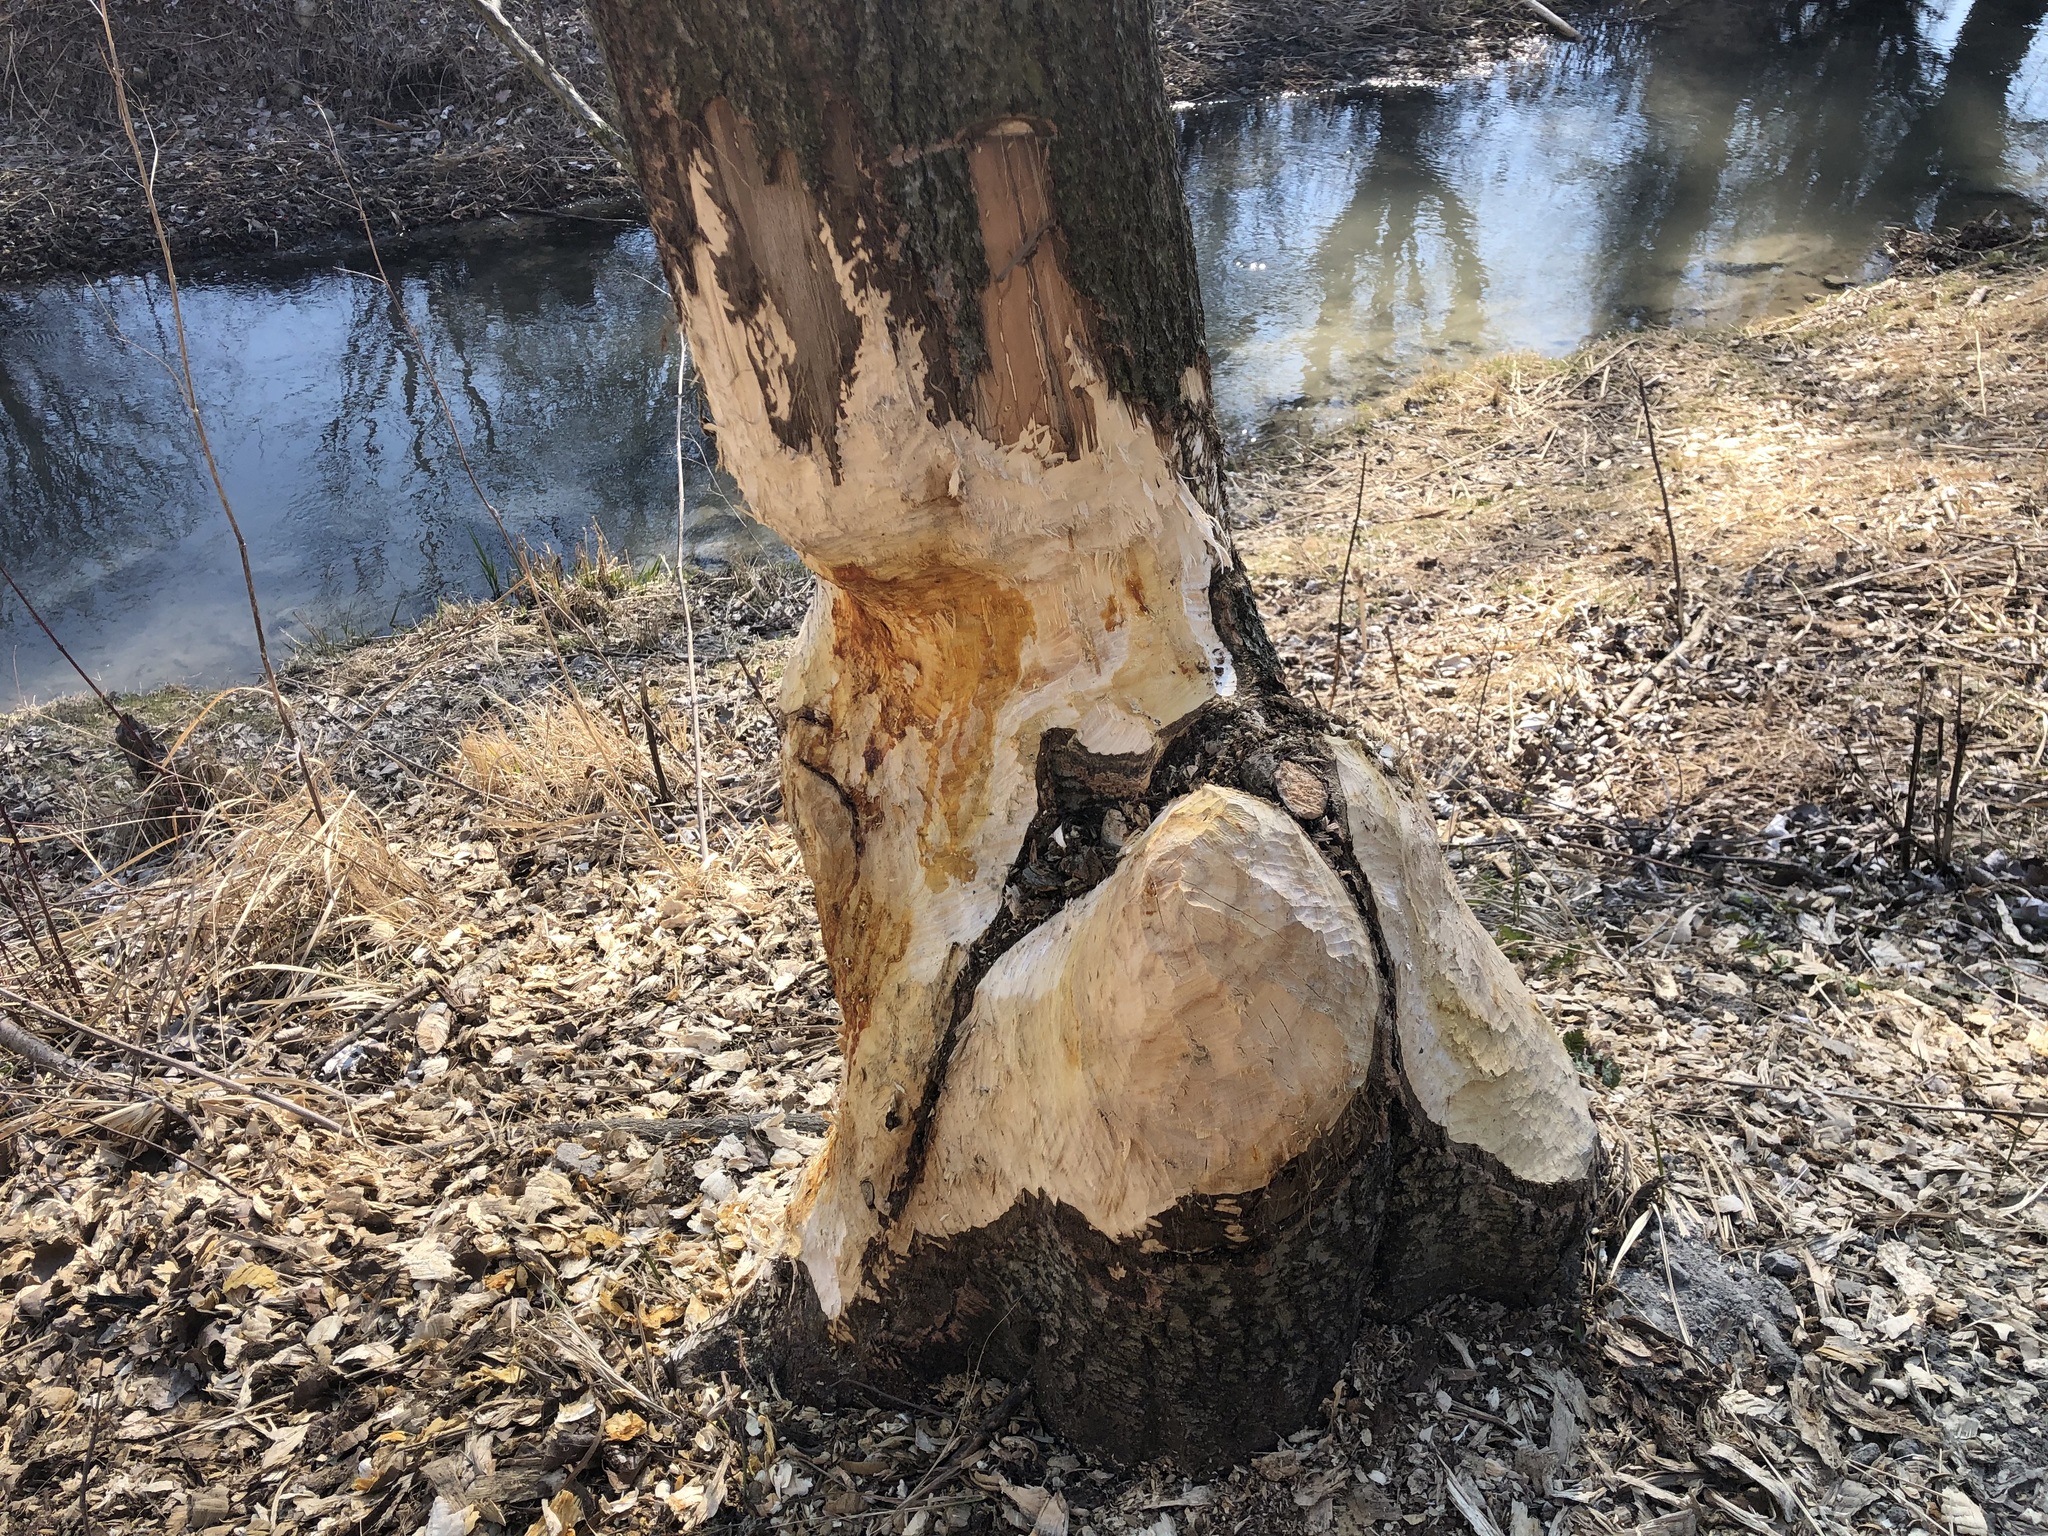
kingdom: Animalia
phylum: Chordata
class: Mammalia
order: Rodentia
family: Castoridae
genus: Castor
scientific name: Castor fiber
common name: Eurasian beaver
